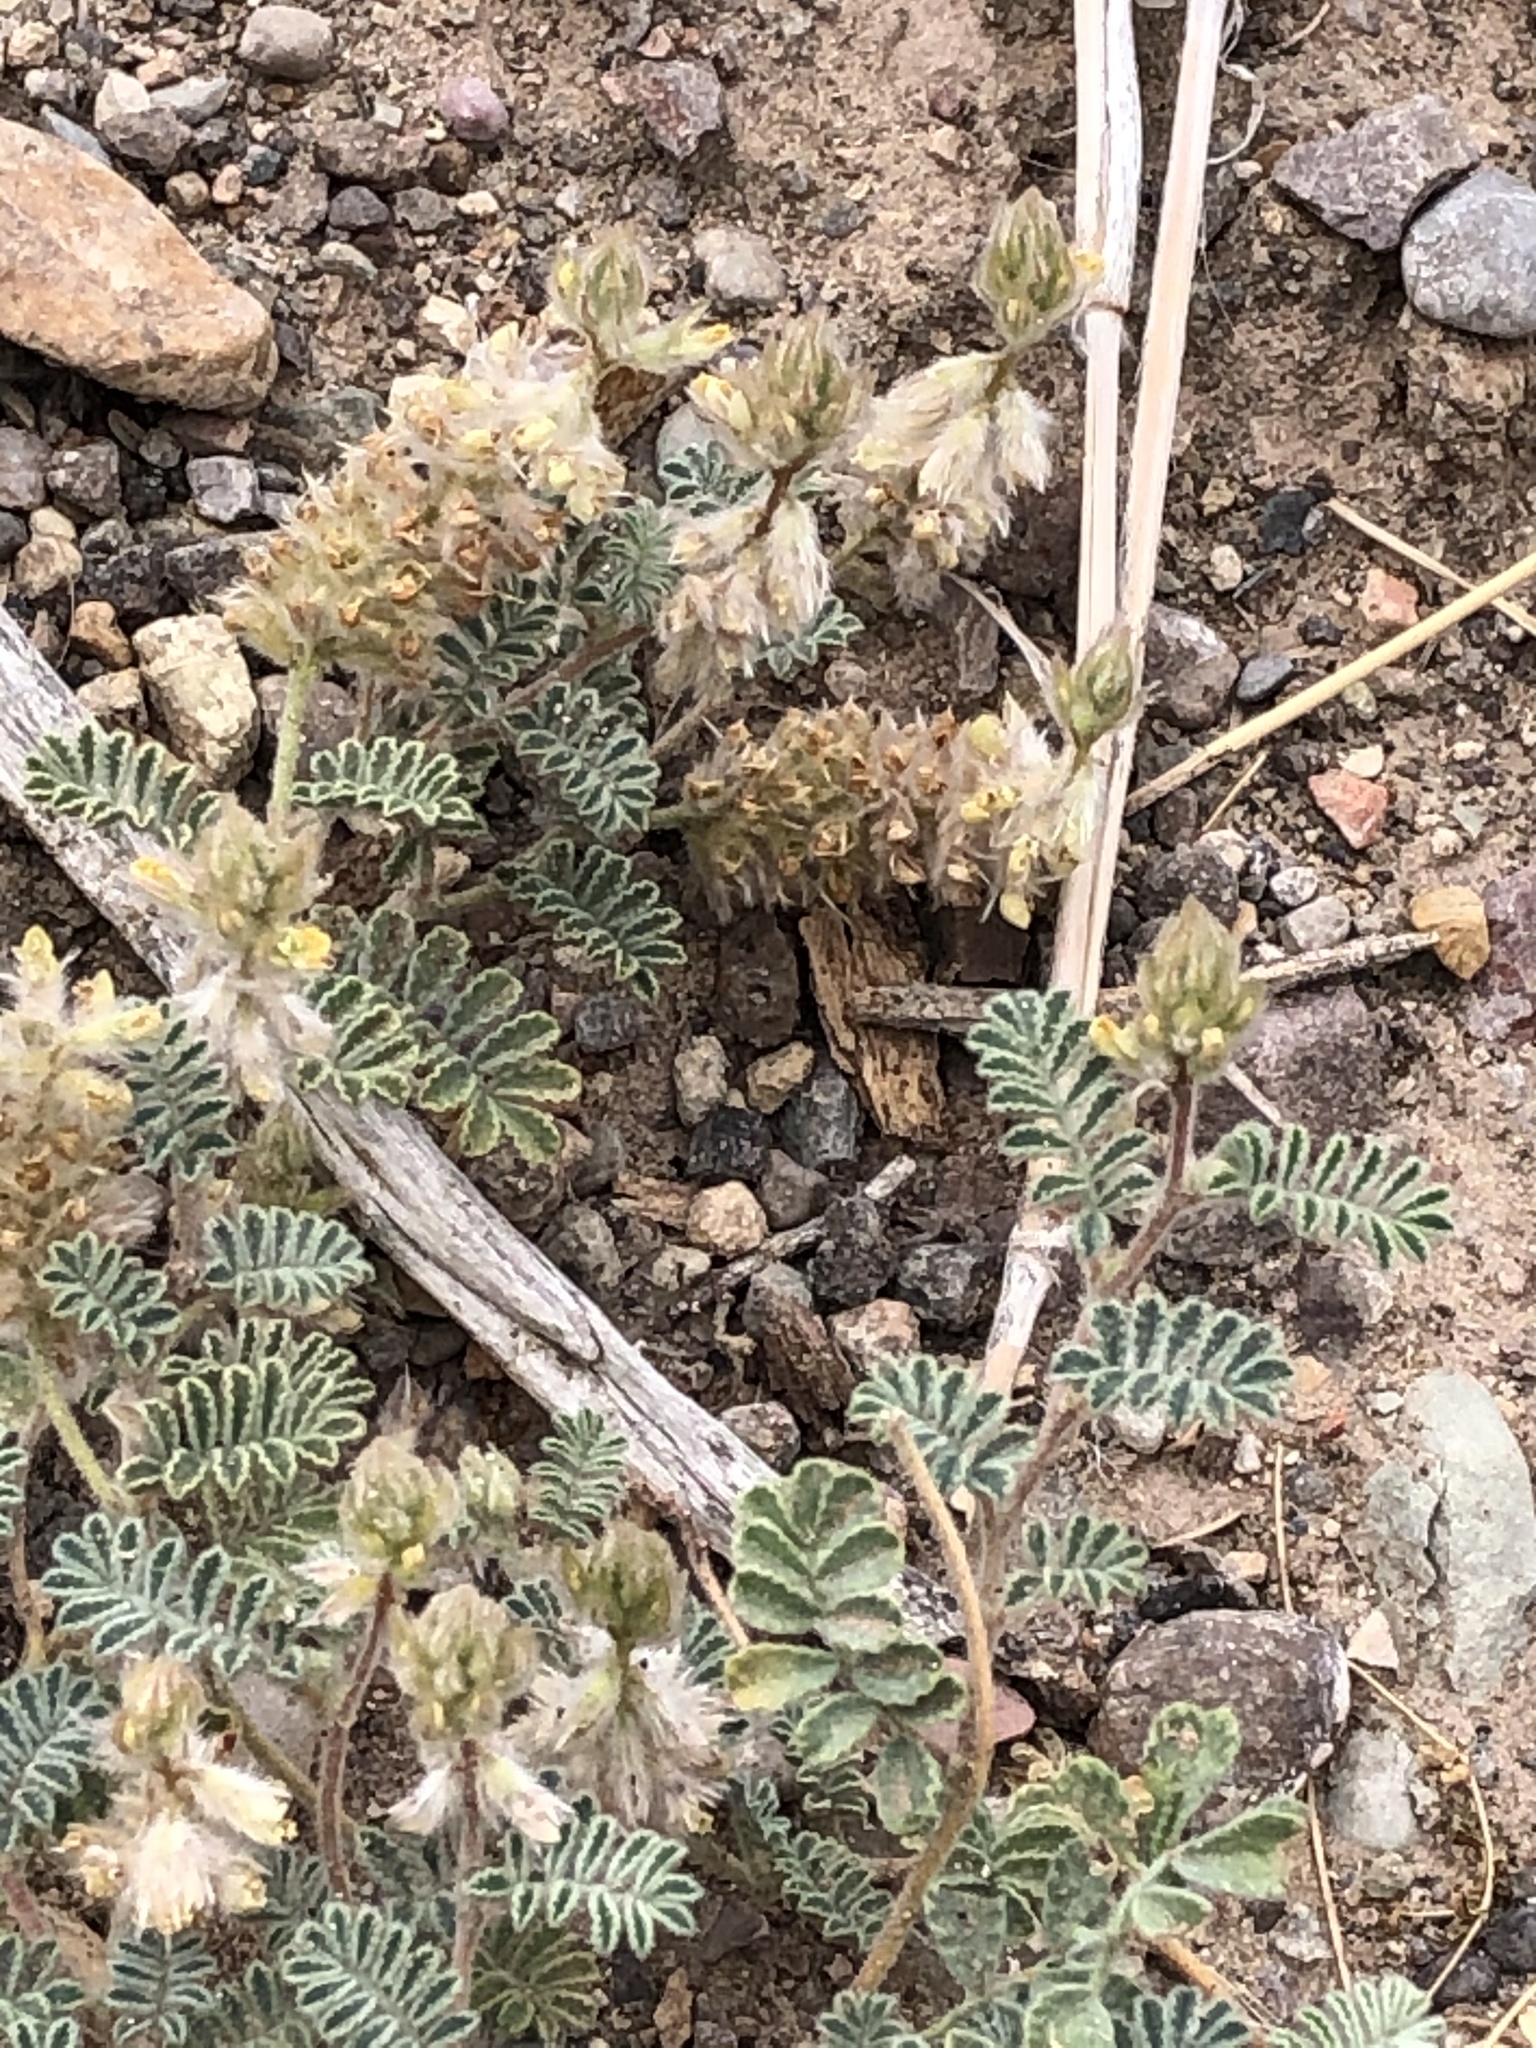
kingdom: Plantae
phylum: Tracheophyta
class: Magnoliopsida
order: Fabales
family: Fabaceae
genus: Dalea
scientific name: Dalea neomexicana
